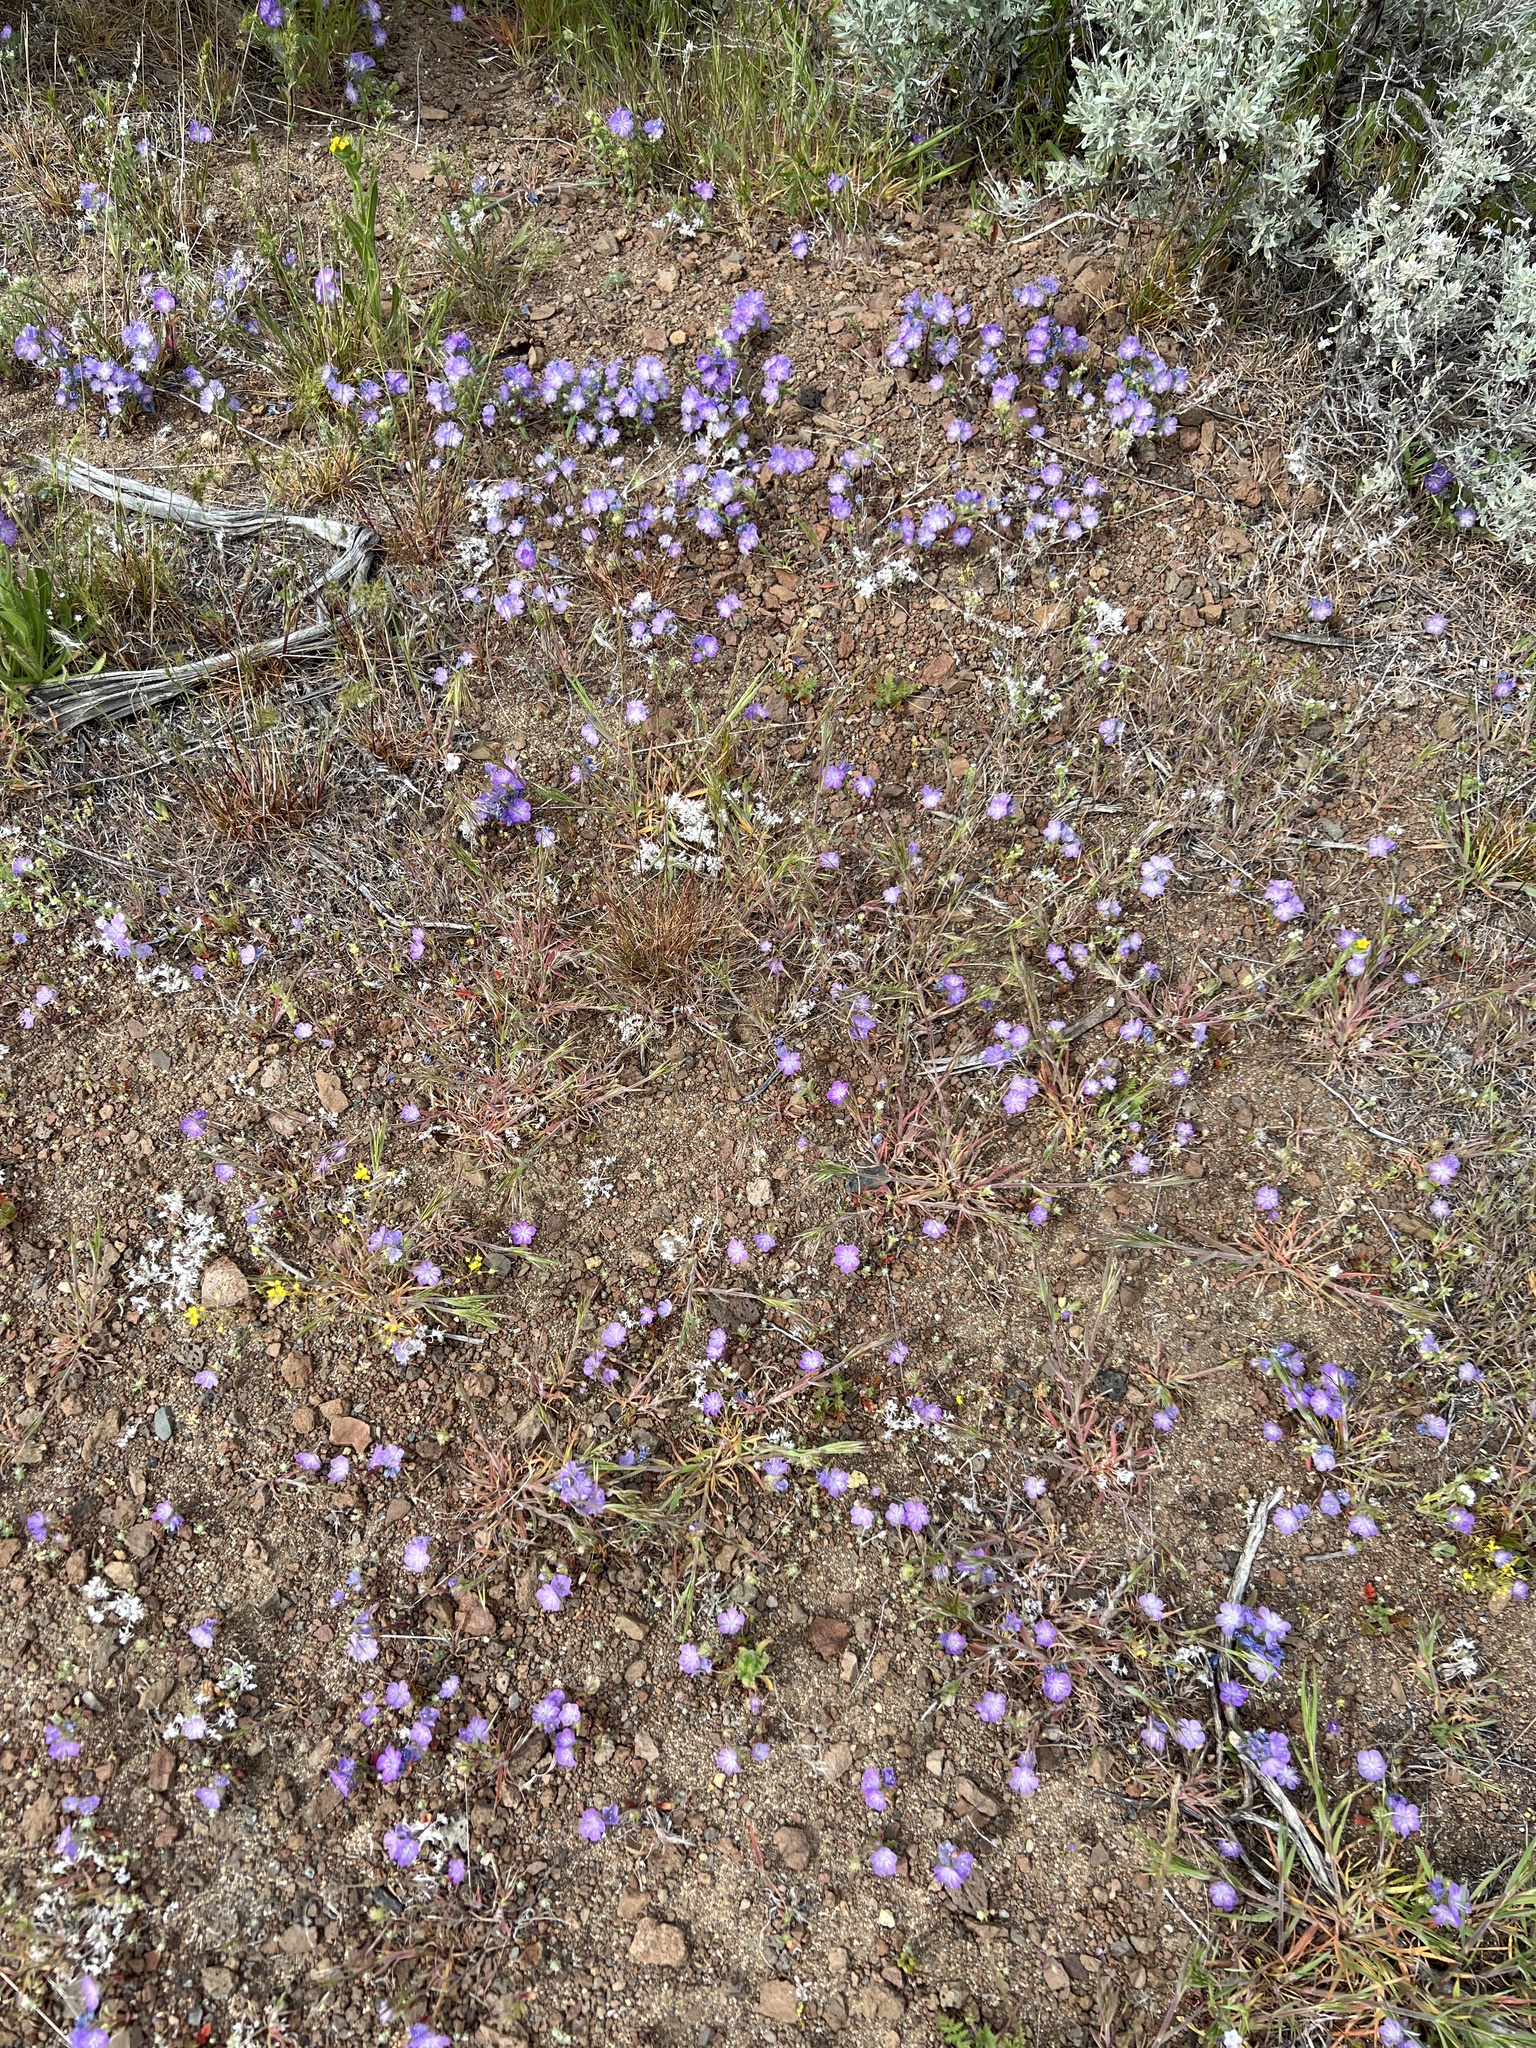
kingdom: Plantae
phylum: Tracheophyta
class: Magnoliopsida
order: Boraginales
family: Hydrophyllaceae
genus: Phacelia
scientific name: Phacelia linearis
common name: Linear-leaved phacelia
